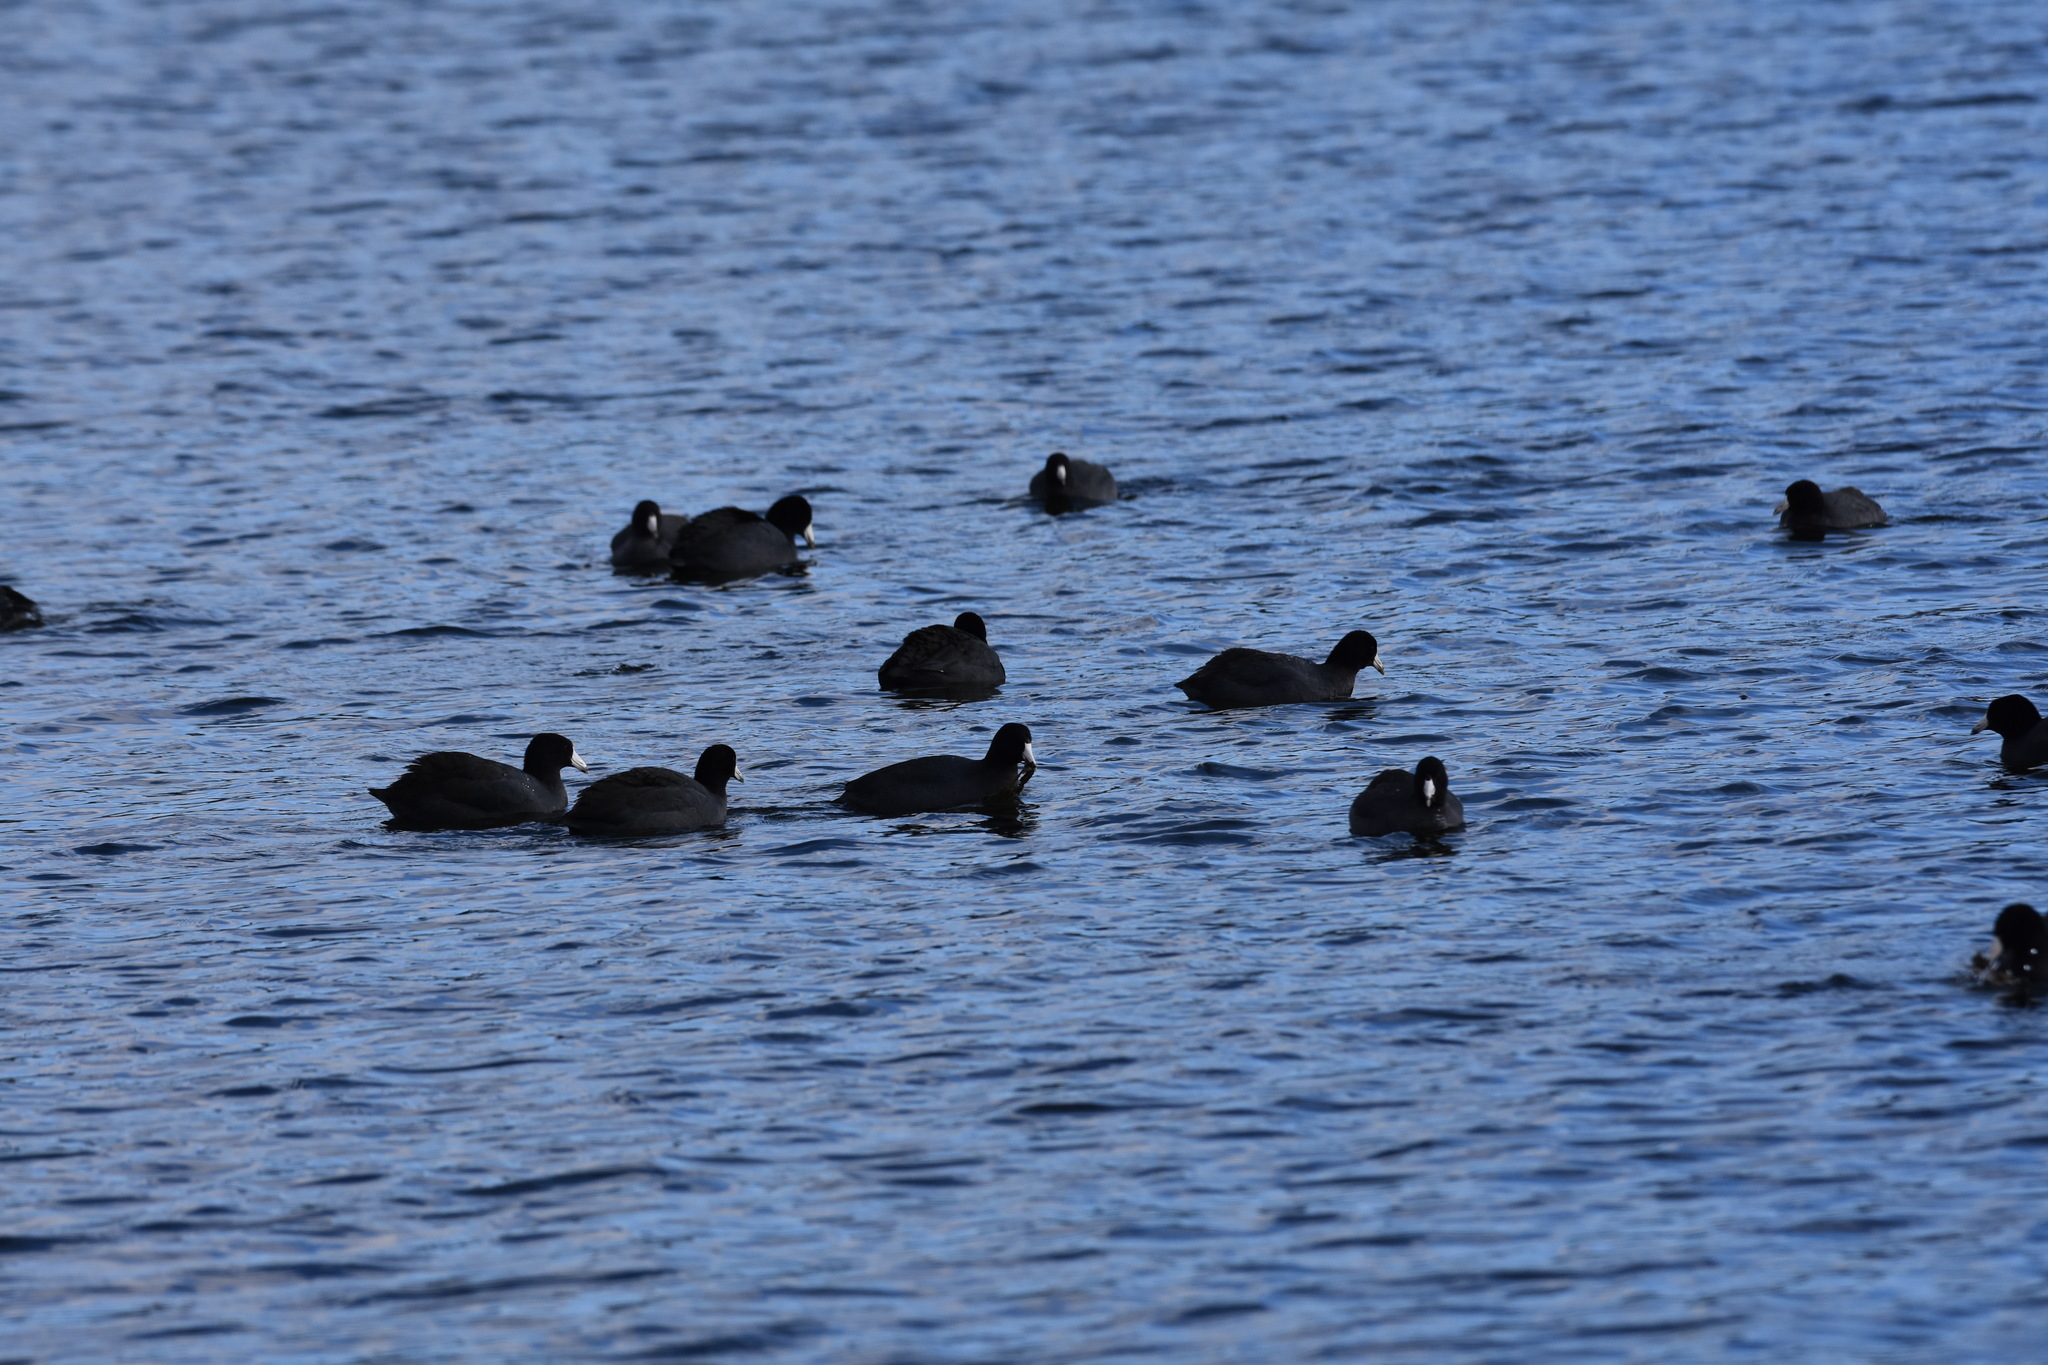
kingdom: Animalia
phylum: Chordata
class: Aves
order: Gruiformes
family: Rallidae
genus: Fulica
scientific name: Fulica americana
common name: American coot
